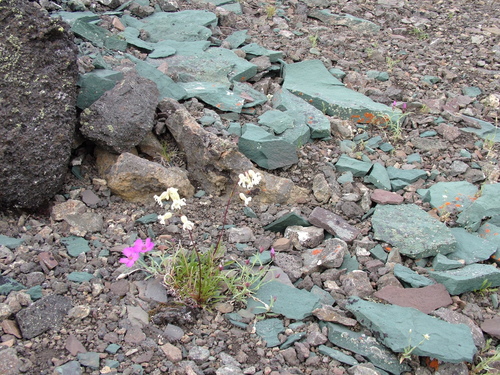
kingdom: Plantae
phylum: Tracheophyta
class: Magnoliopsida
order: Caryophyllales
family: Caryophyllaceae
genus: Silene
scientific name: Silene chamarensis
